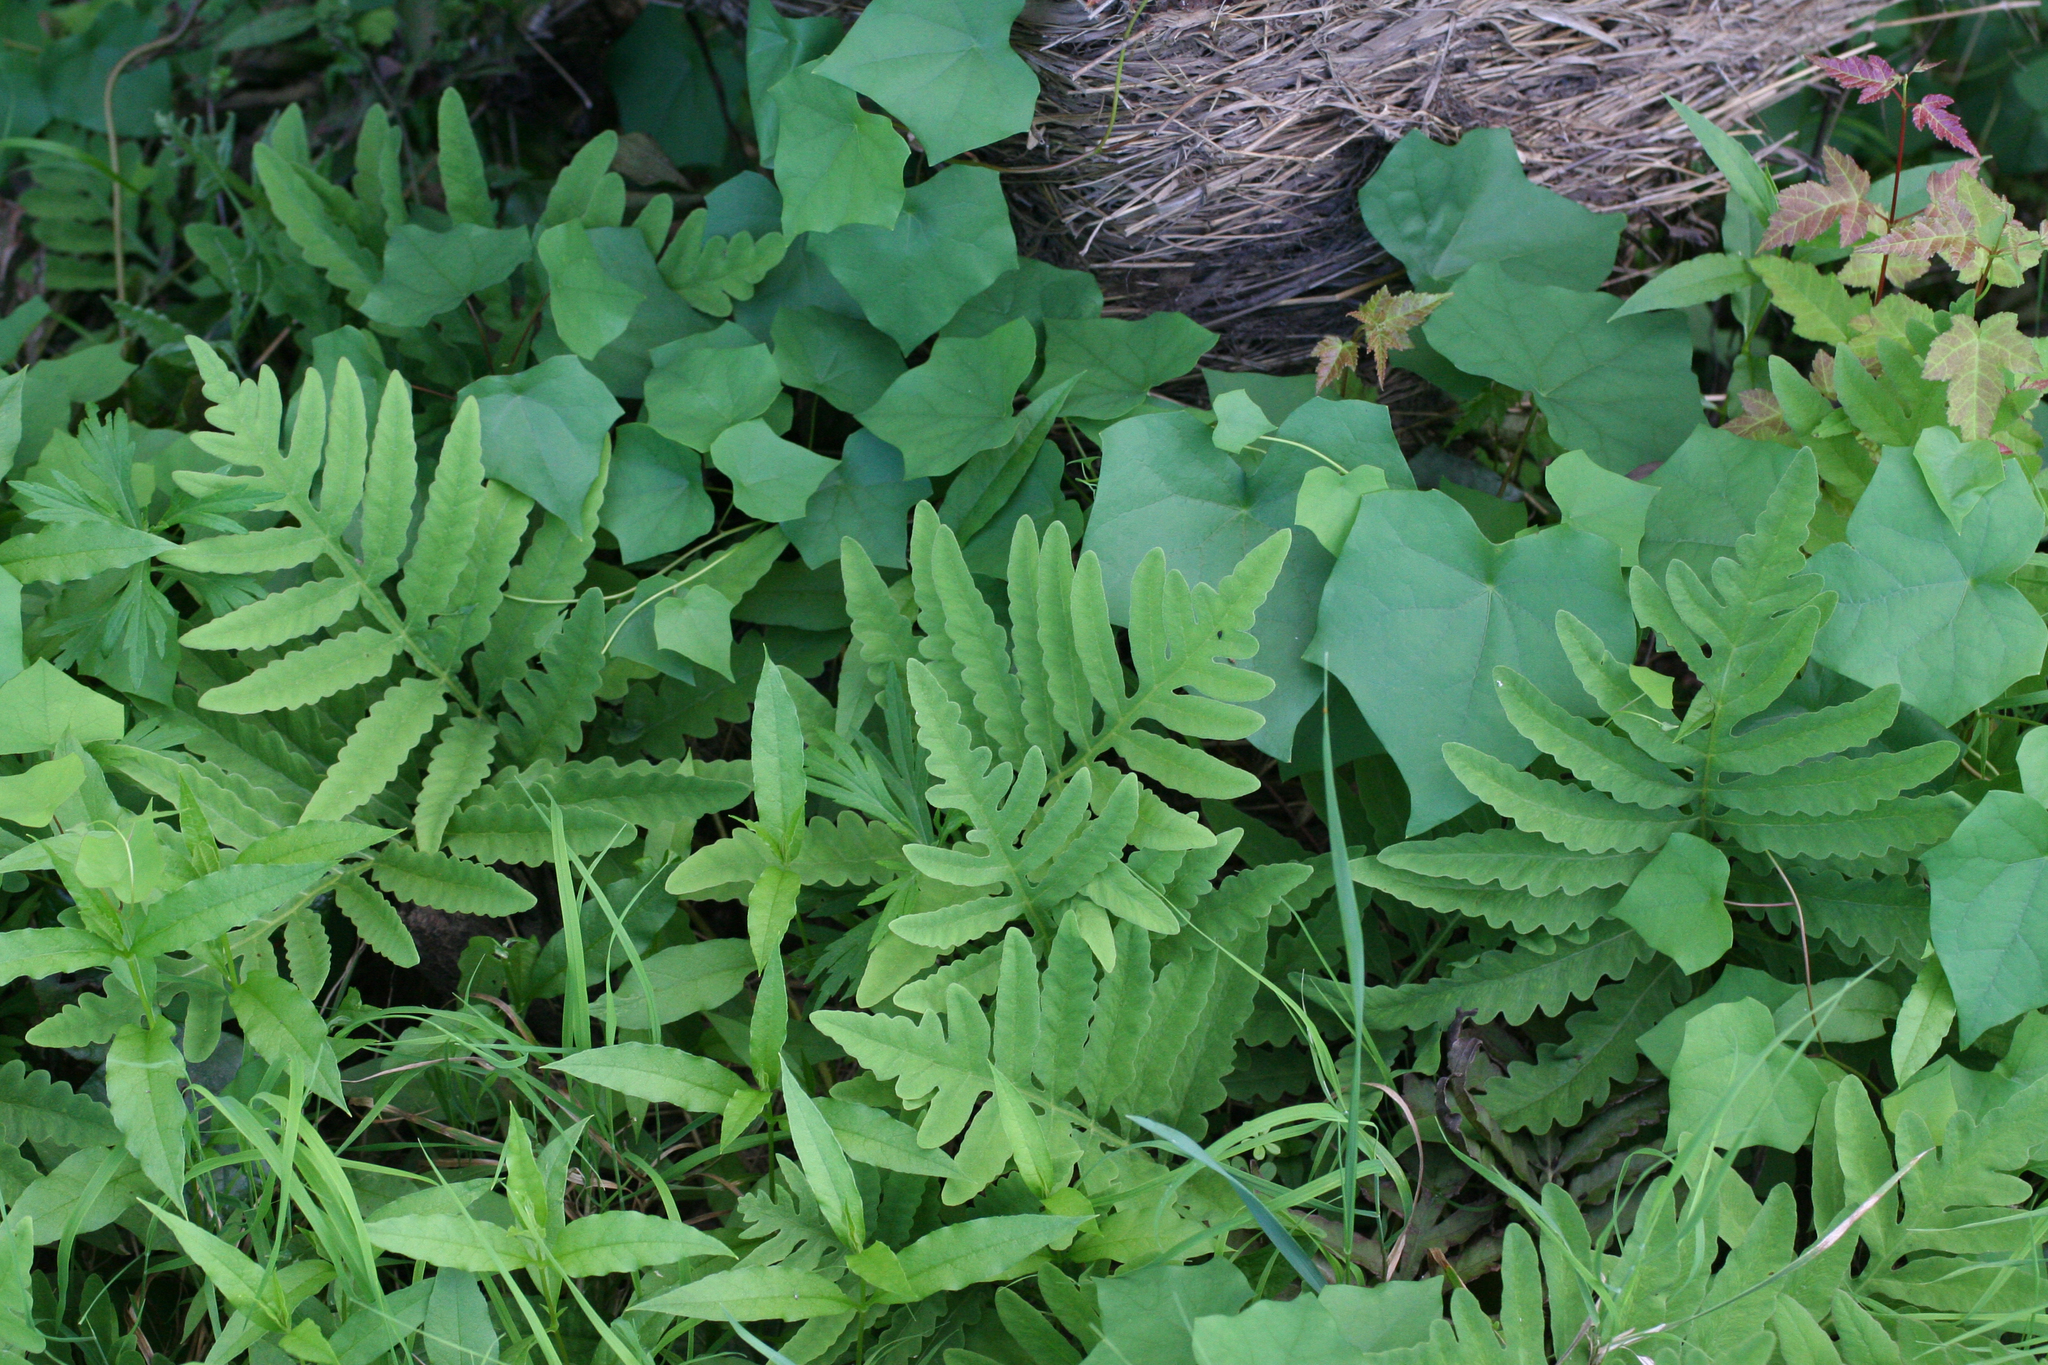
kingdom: Plantae
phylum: Tracheophyta
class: Polypodiopsida
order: Polypodiales
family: Onocleaceae
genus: Onoclea
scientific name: Onoclea sensibilis
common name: Sensitive fern
